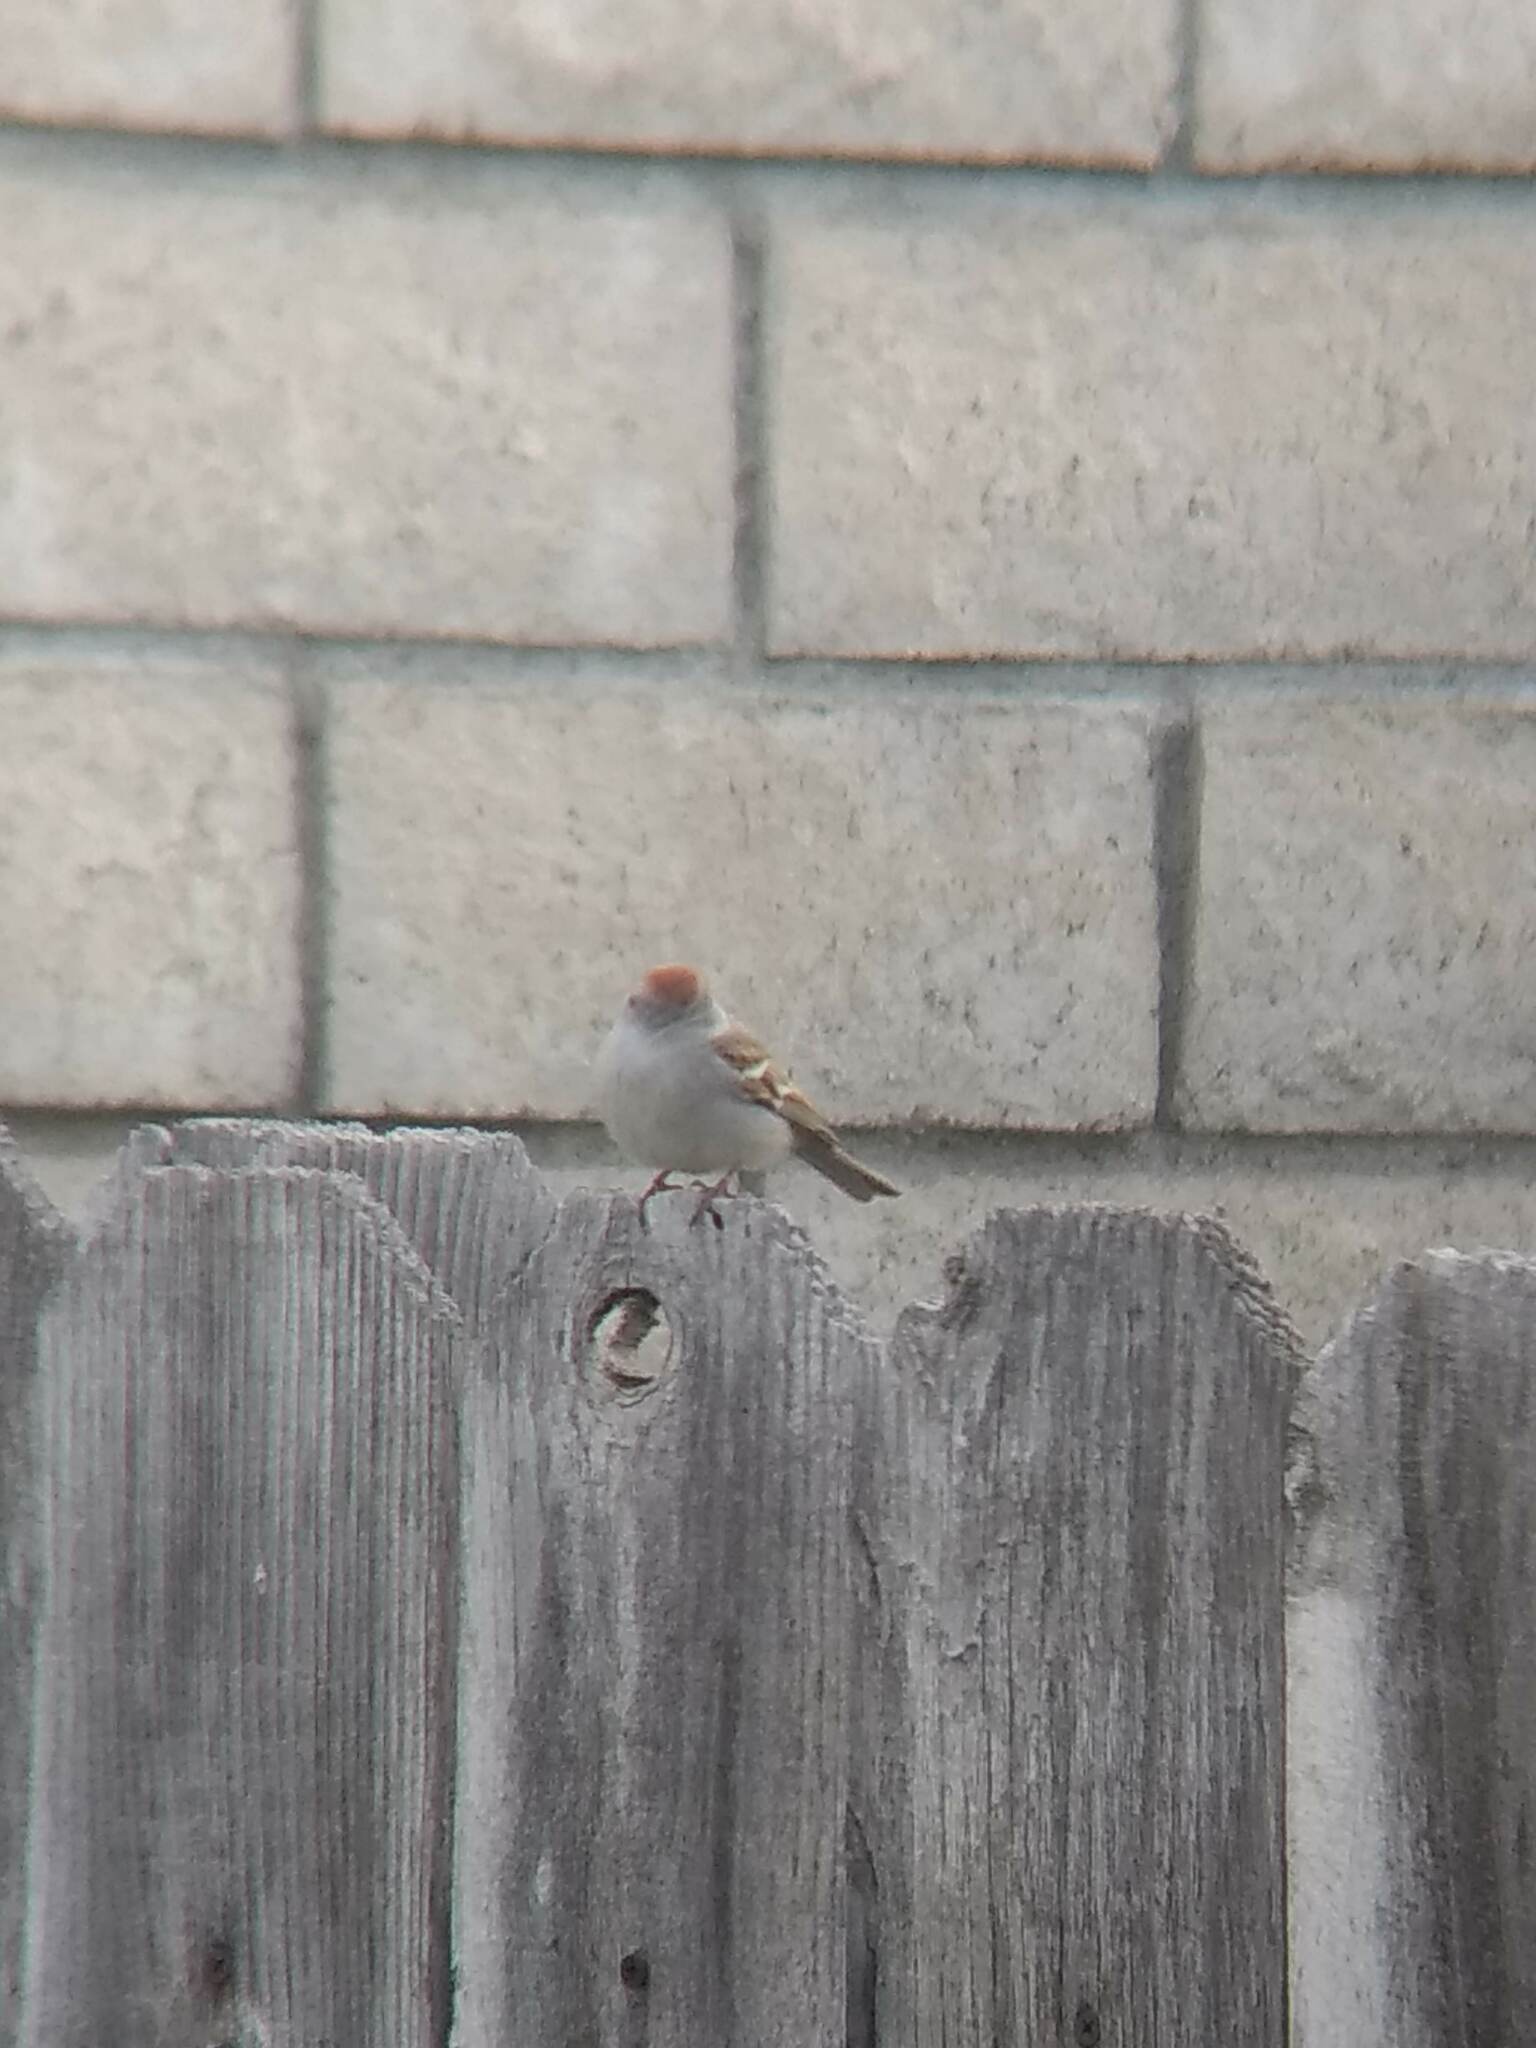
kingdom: Animalia
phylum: Chordata
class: Aves
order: Passeriformes
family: Passerellidae
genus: Spizella
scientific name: Spizella passerina
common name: Chipping sparrow
